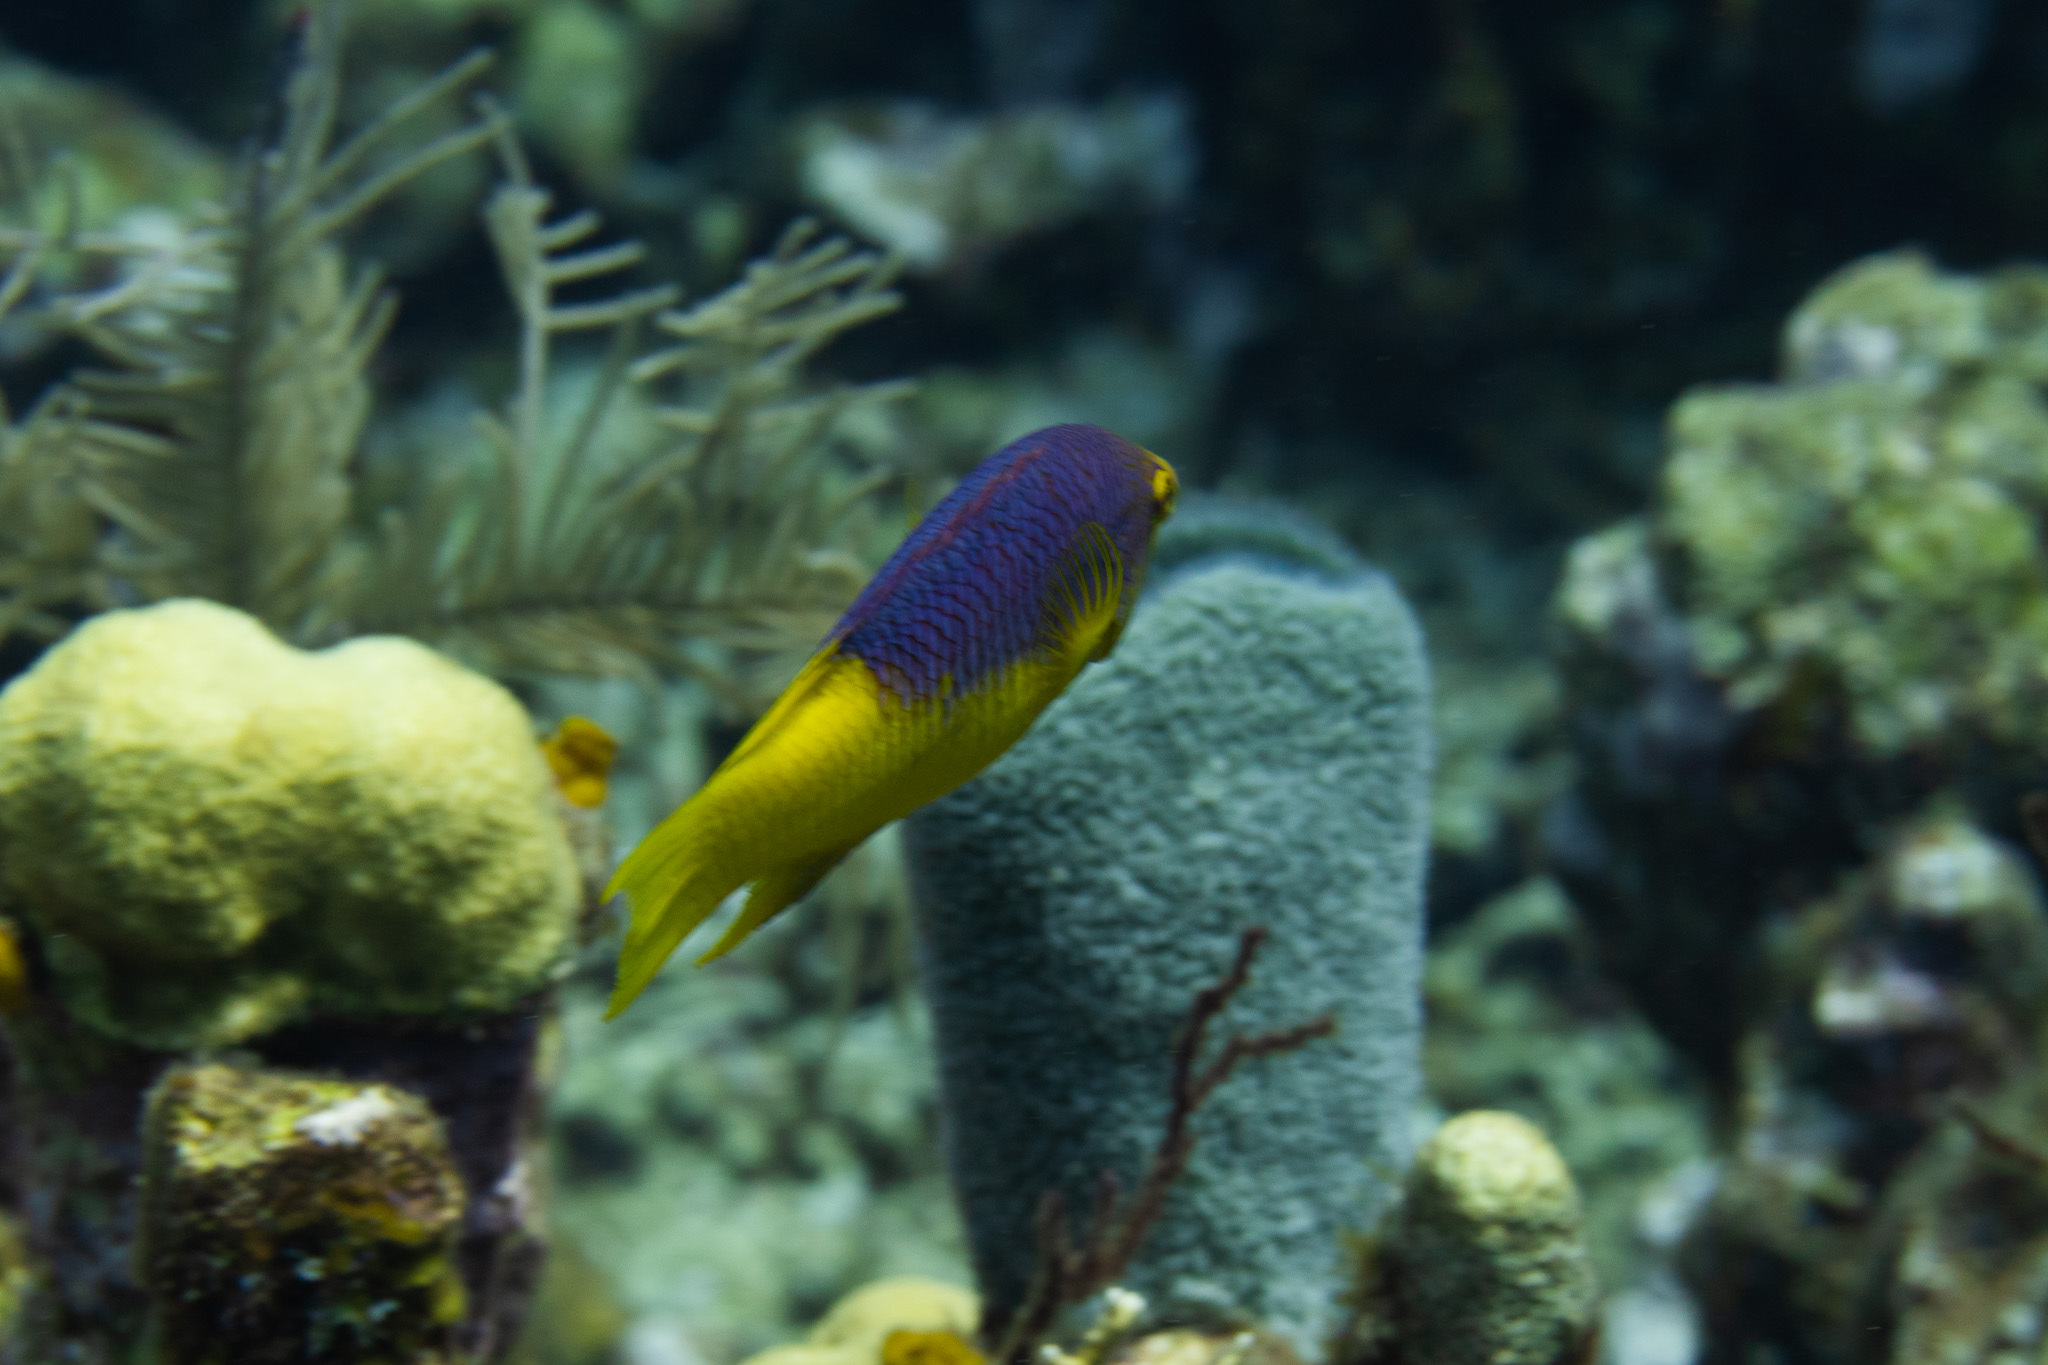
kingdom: Animalia
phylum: Chordata
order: Perciformes
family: Labridae
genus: Bodianus
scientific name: Bodianus rufus
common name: Spanish hogfish
